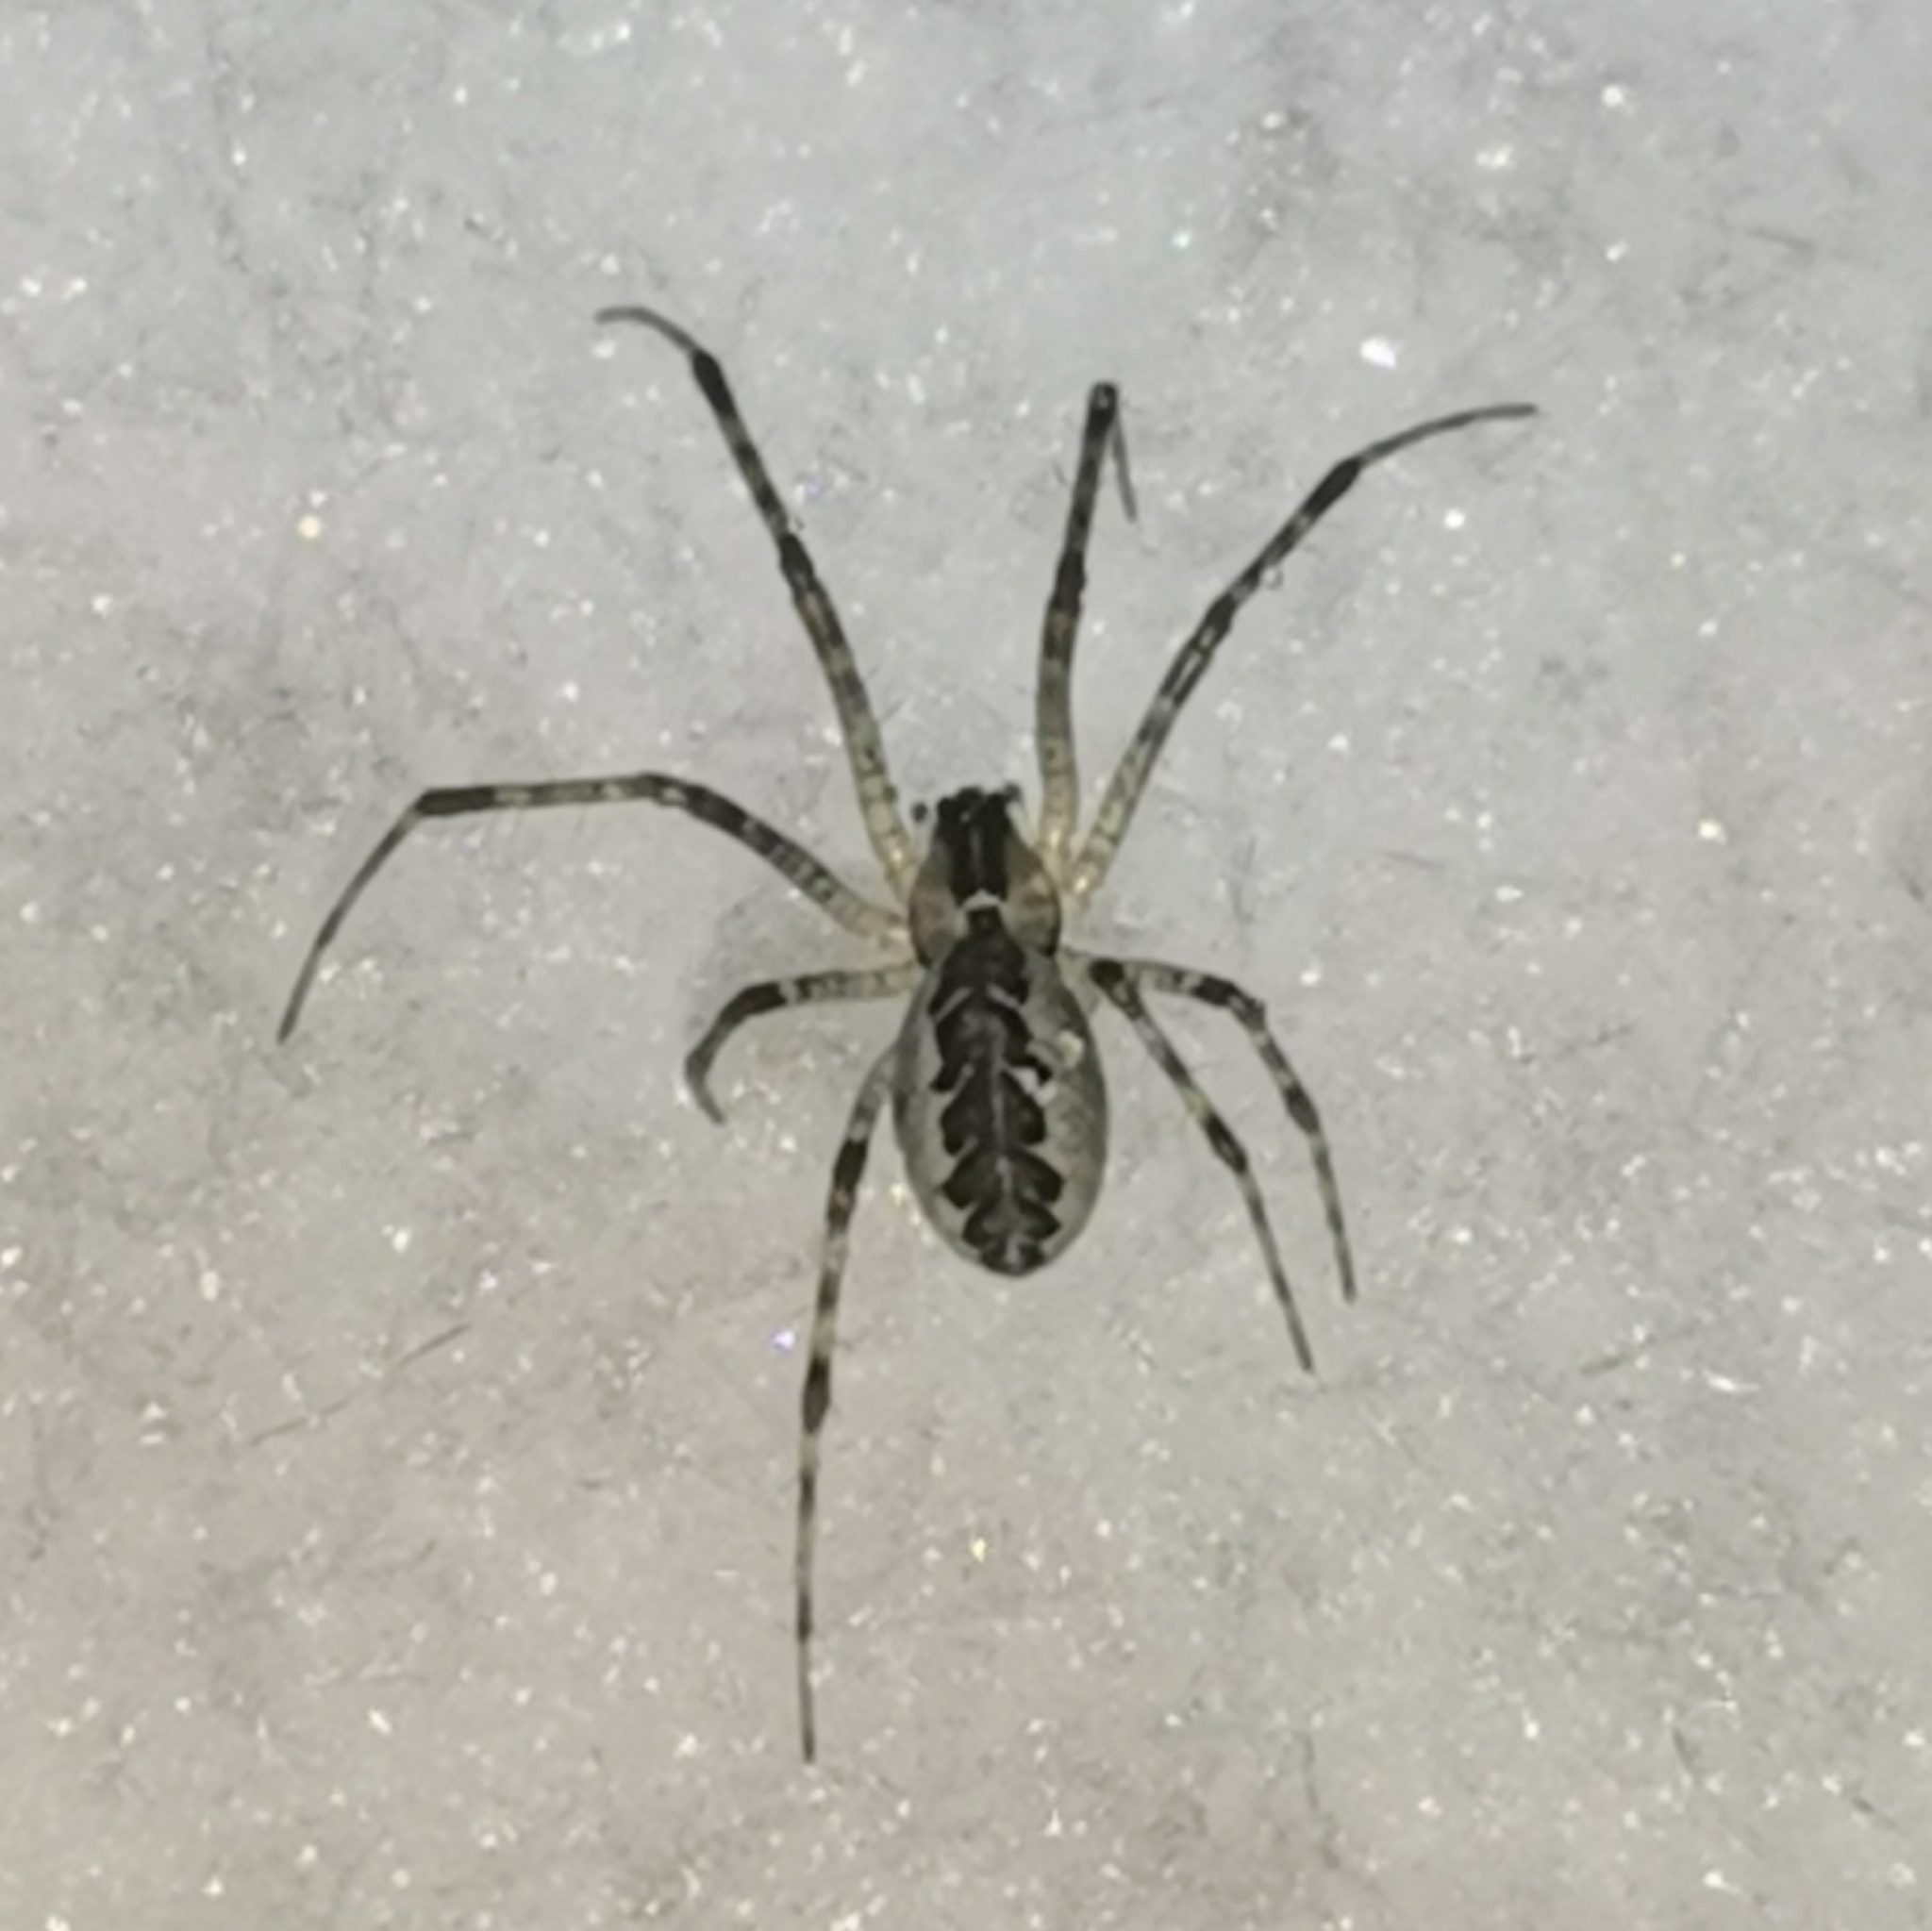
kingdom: Animalia
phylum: Arthropoda
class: Arachnida
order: Araneae
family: Linyphiidae
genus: Pityohyphantes
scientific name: Pityohyphantes phrygianus
